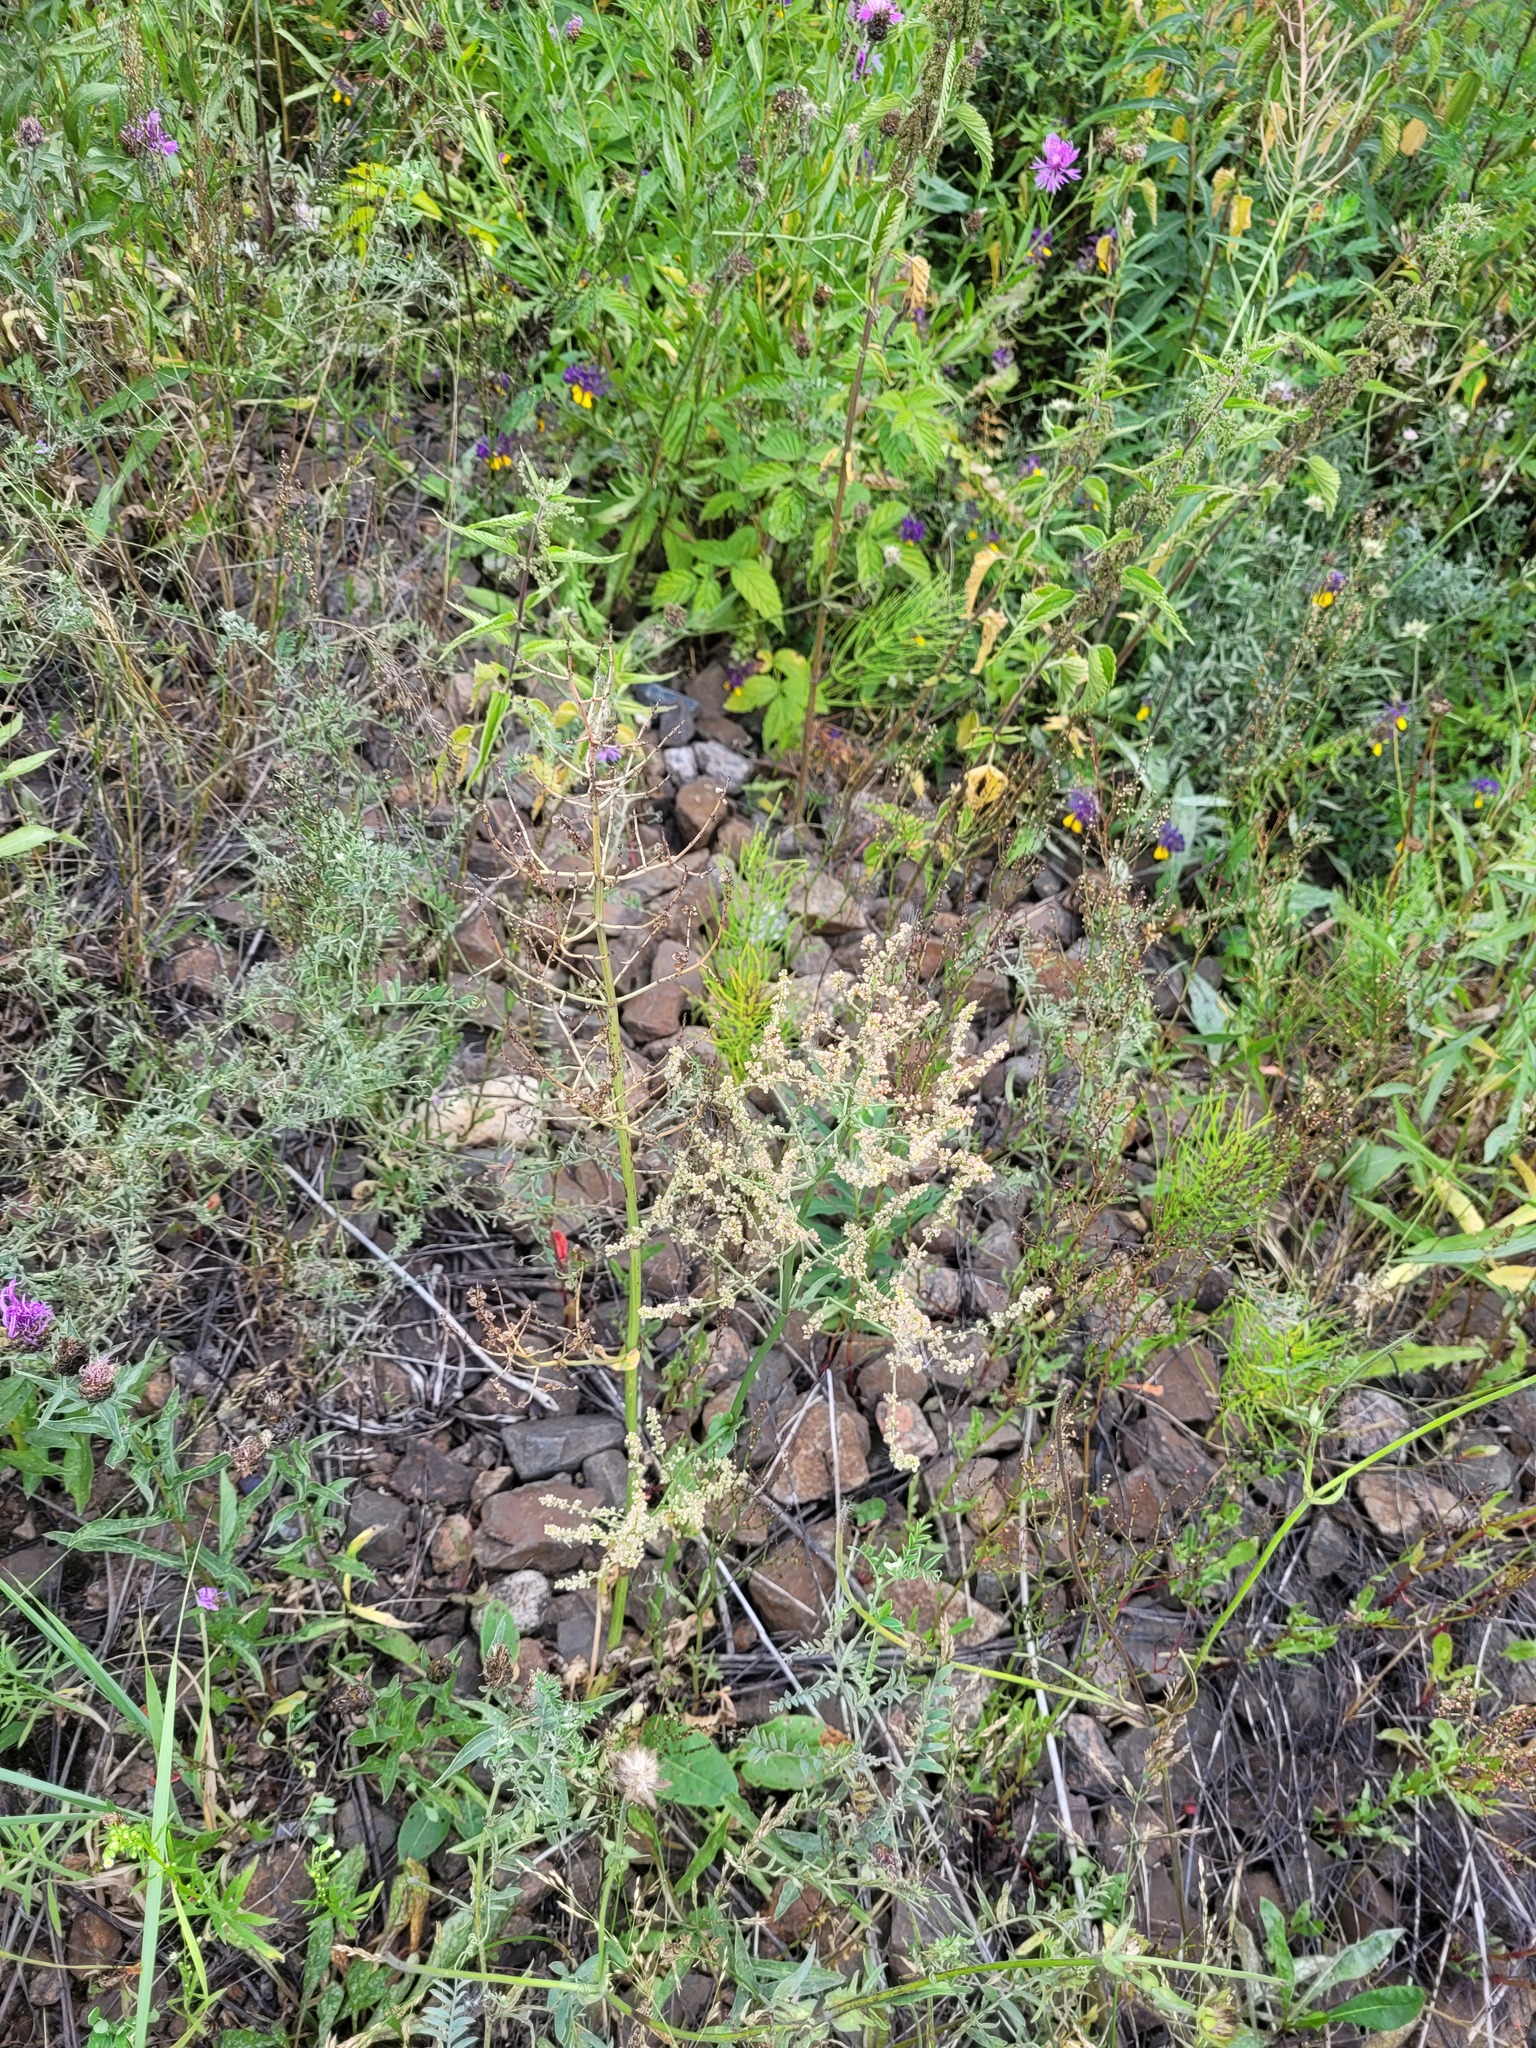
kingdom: Plantae
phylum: Tracheophyta
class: Magnoliopsida
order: Caryophyllales
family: Polygonaceae
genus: Rumex
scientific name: Rumex thyrsiflorus
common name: Garden sorrel
